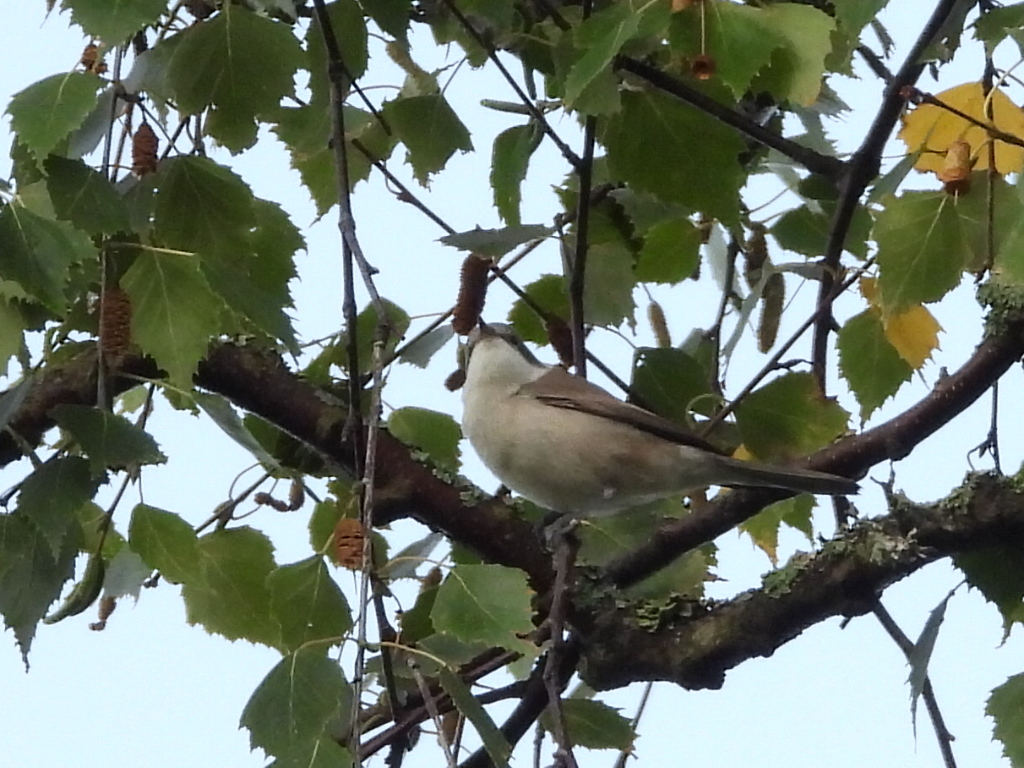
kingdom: Animalia
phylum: Chordata
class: Aves
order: Passeriformes
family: Sylviidae
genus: Sylvia
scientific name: Sylvia curruca
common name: Lesser whitethroat
